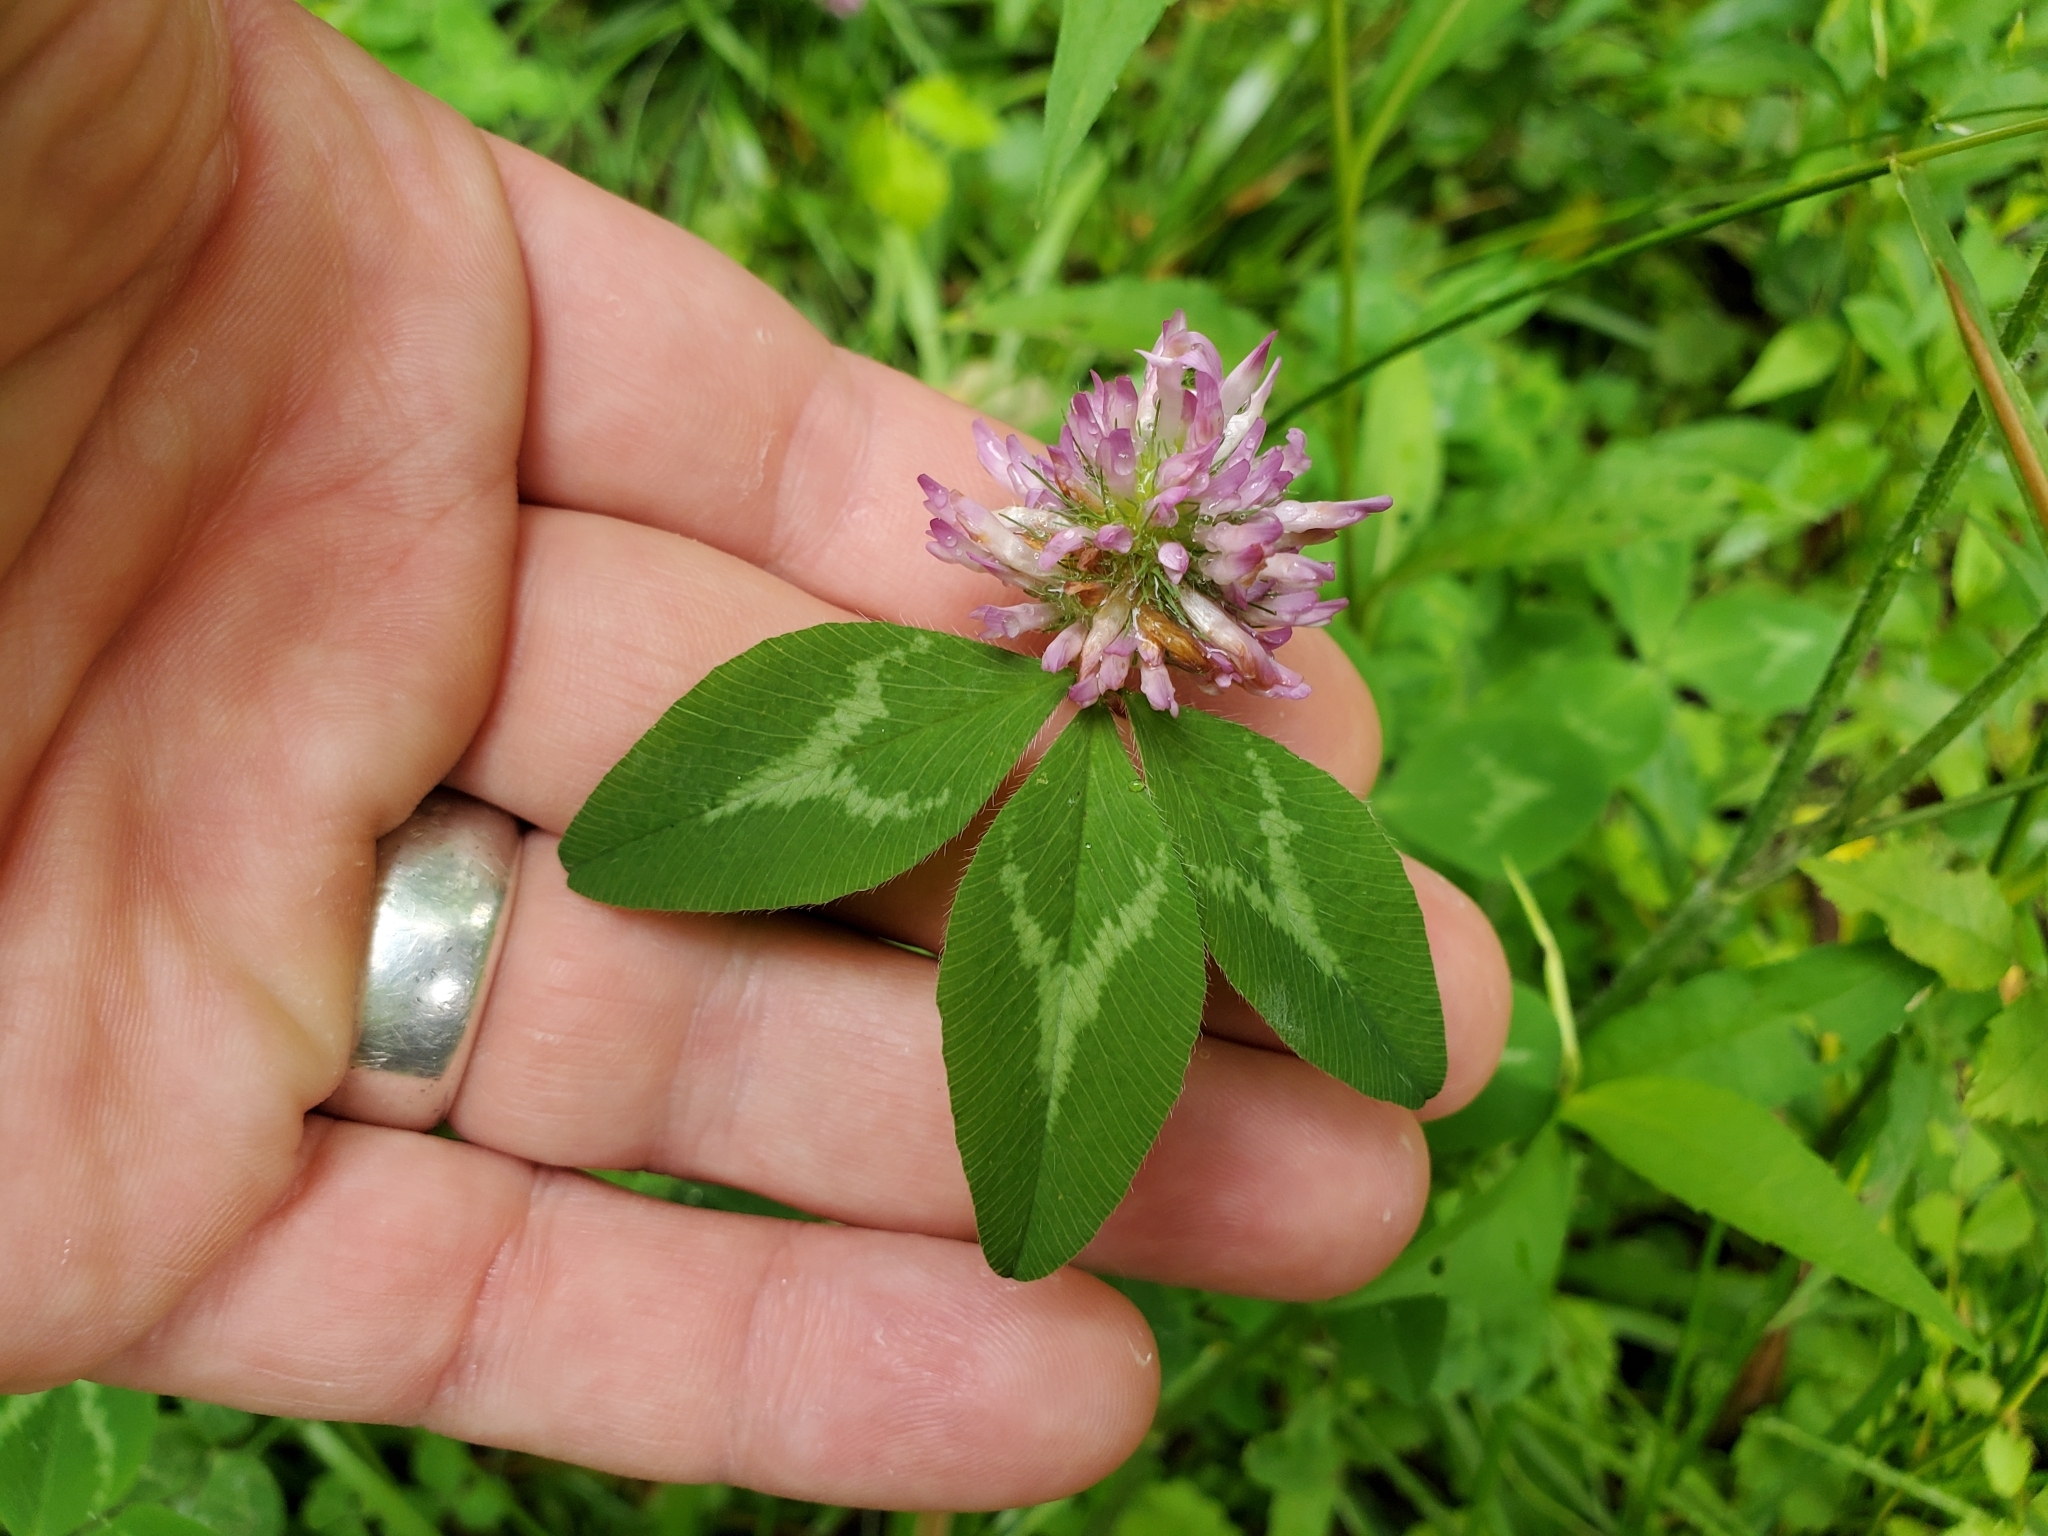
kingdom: Plantae
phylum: Tracheophyta
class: Magnoliopsida
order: Fabales
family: Fabaceae
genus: Trifolium
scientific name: Trifolium pratense
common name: Red clover
